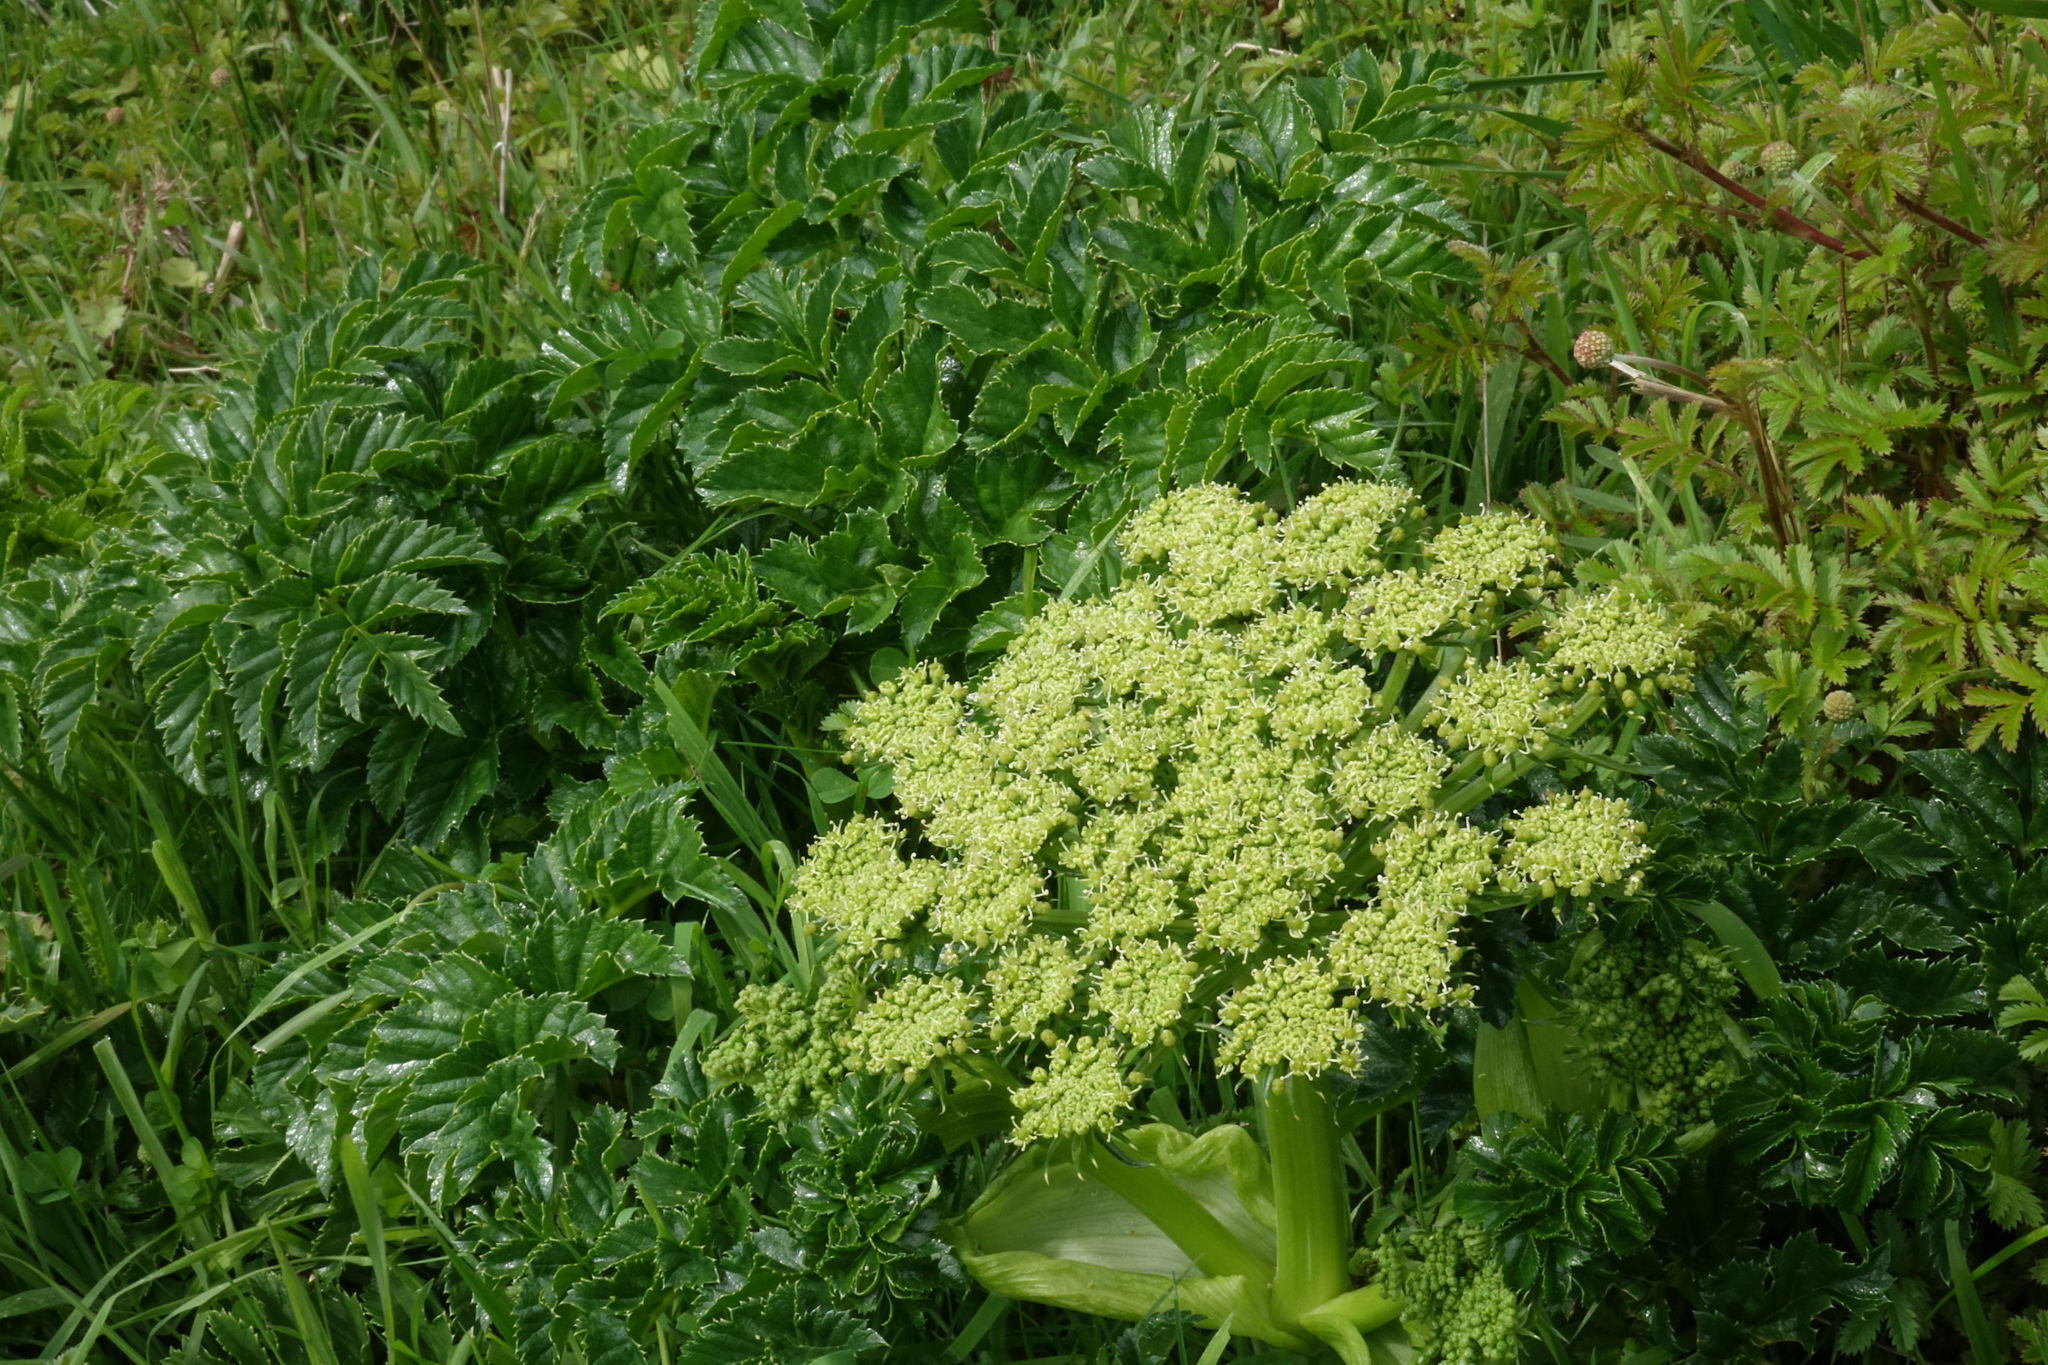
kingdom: Plantae
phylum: Tracheophyta
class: Magnoliopsida
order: Apiales
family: Apiaceae
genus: Angelica
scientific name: Angelica pachycarpa
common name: Portuguese angelica
